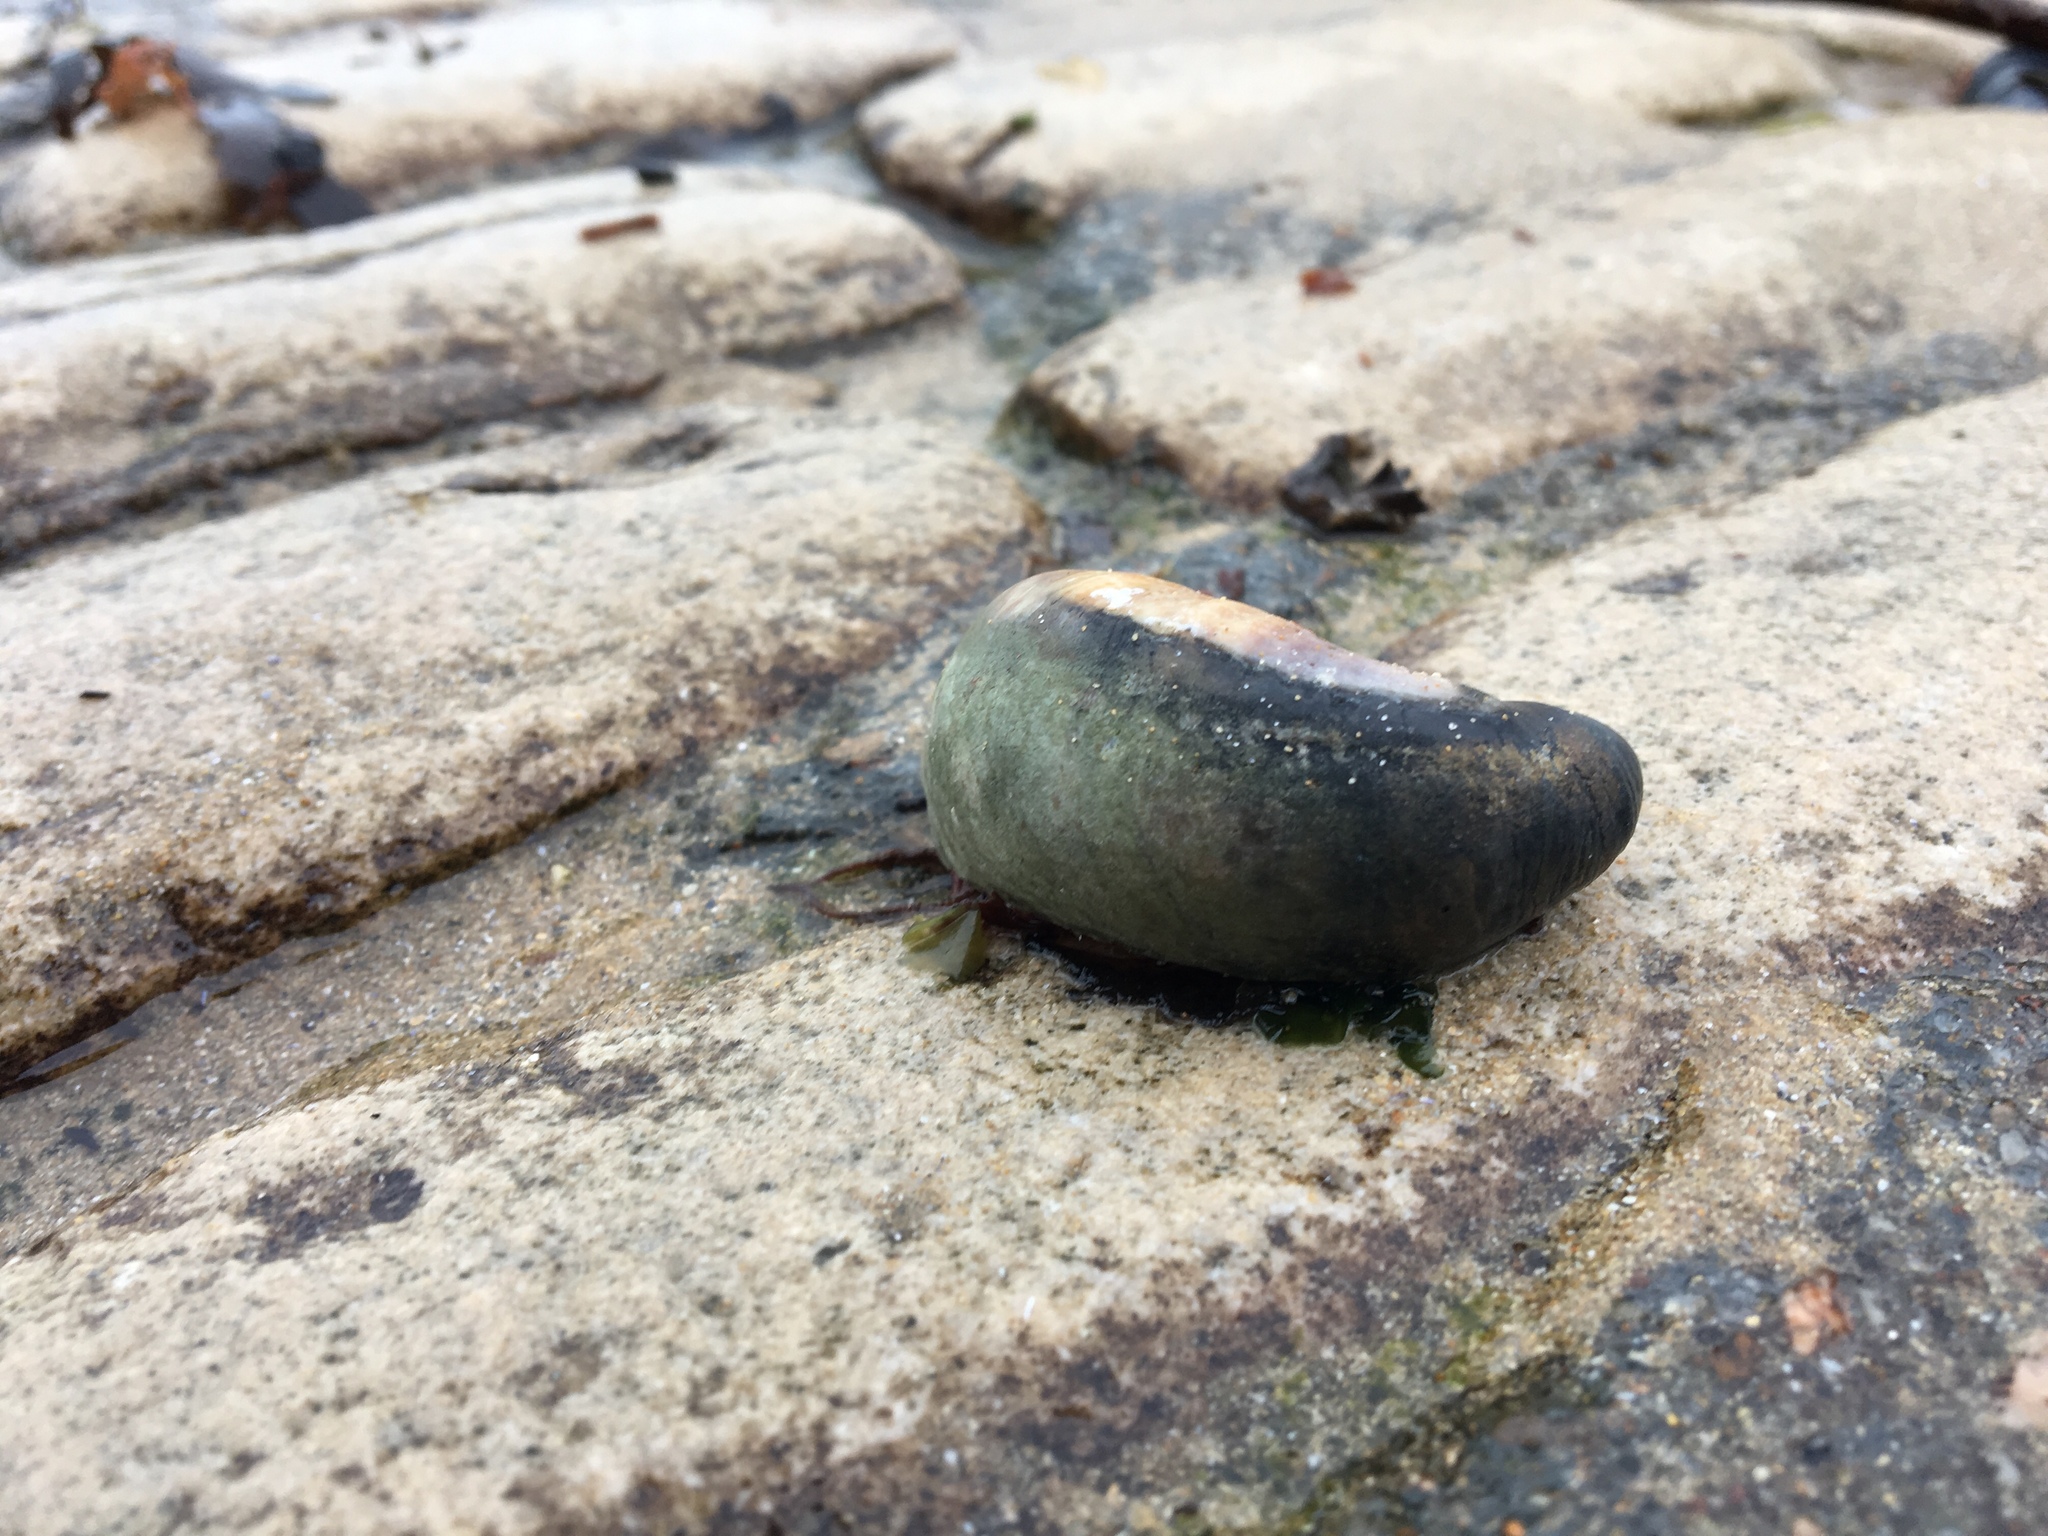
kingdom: Animalia
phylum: Mollusca
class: Gastropoda
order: Littorinimorpha
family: Calyptraeidae
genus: Crepidula
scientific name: Crepidula fornicata
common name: Slipper limpet
